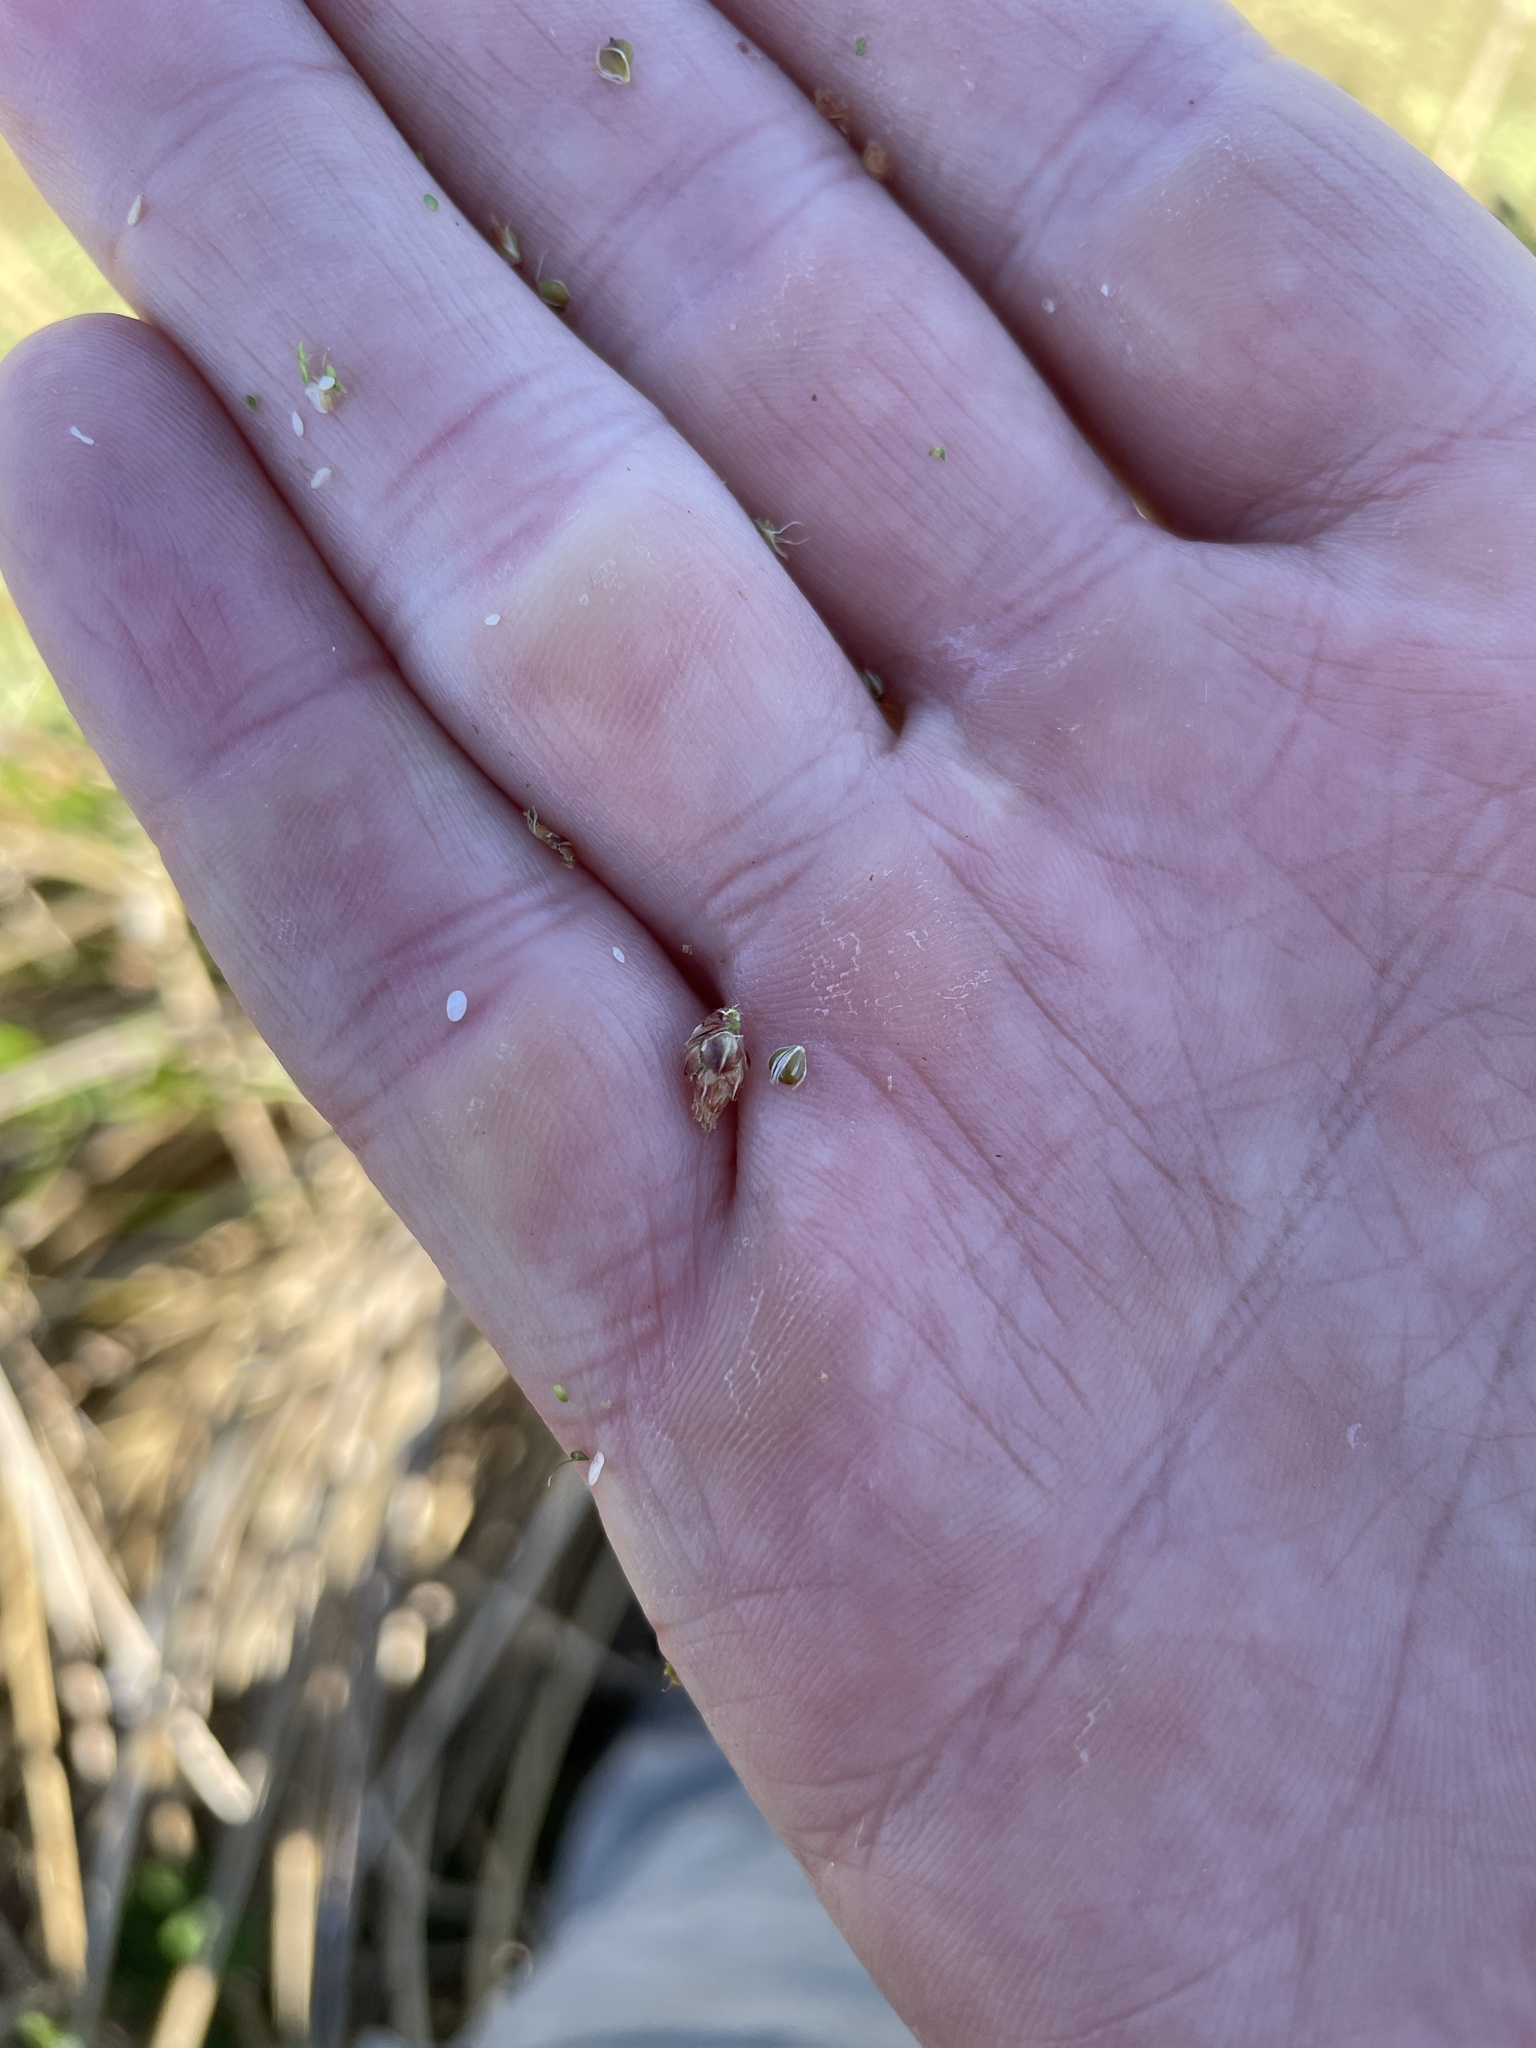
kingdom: Plantae
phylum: Tracheophyta
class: Liliopsida
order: Poales
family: Cyperaceae
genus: Schoenoplectus
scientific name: Schoenoplectus americanus
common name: American three-square bulrush
